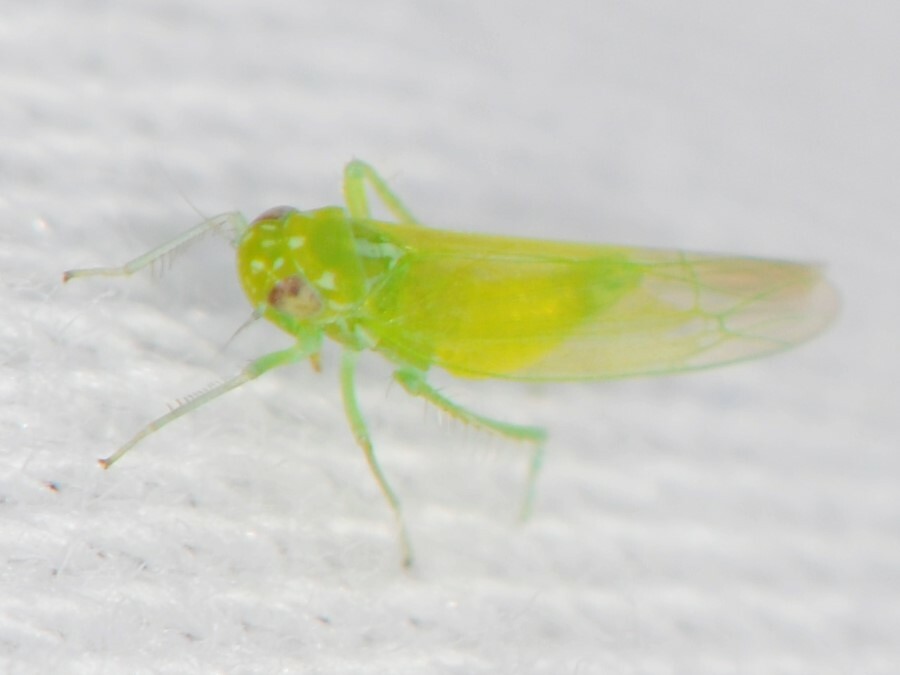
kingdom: Animalia
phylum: Arthropoda
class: Insecta
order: Hemiptera
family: Cicadellidae
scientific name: Cicadellidae
